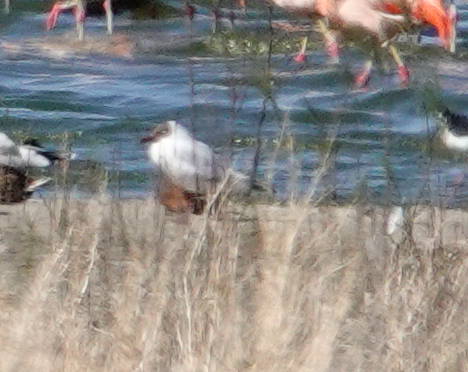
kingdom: Animalia
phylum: Chordata
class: Aves
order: Charadriiformes
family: Laridae
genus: Chroicocephalus
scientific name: Chroicocephalus maculipennis
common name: Brown-hooded gull
